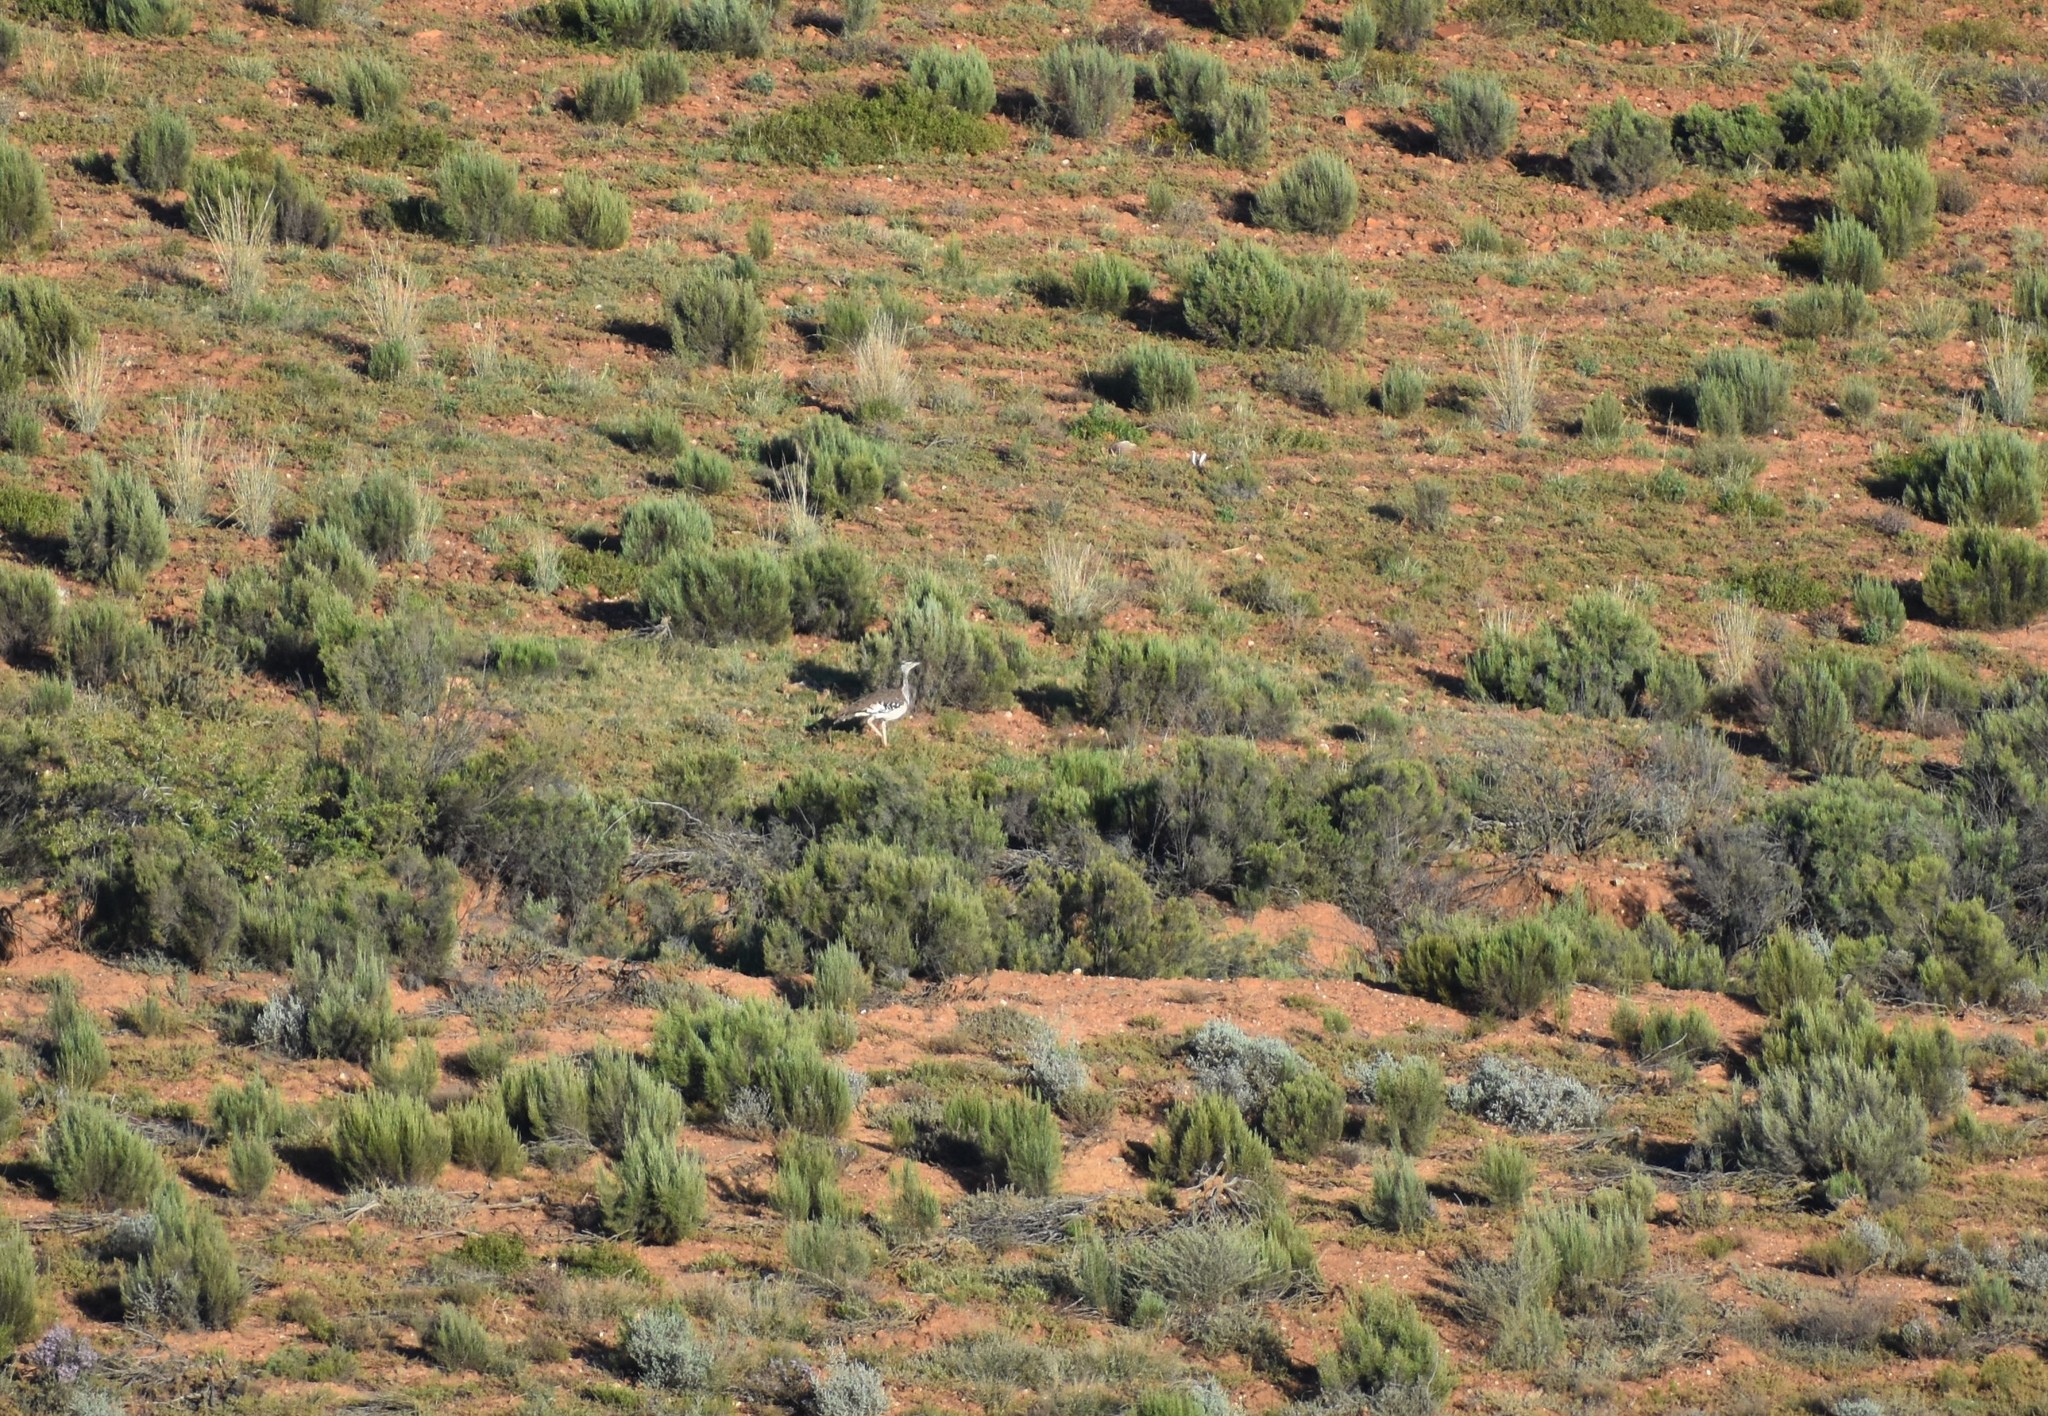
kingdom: Animalia
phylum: Chordata
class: Aves
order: Otidiformes
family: Otididae
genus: Neotis
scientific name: Neotis denhami
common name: Denham's bustard
